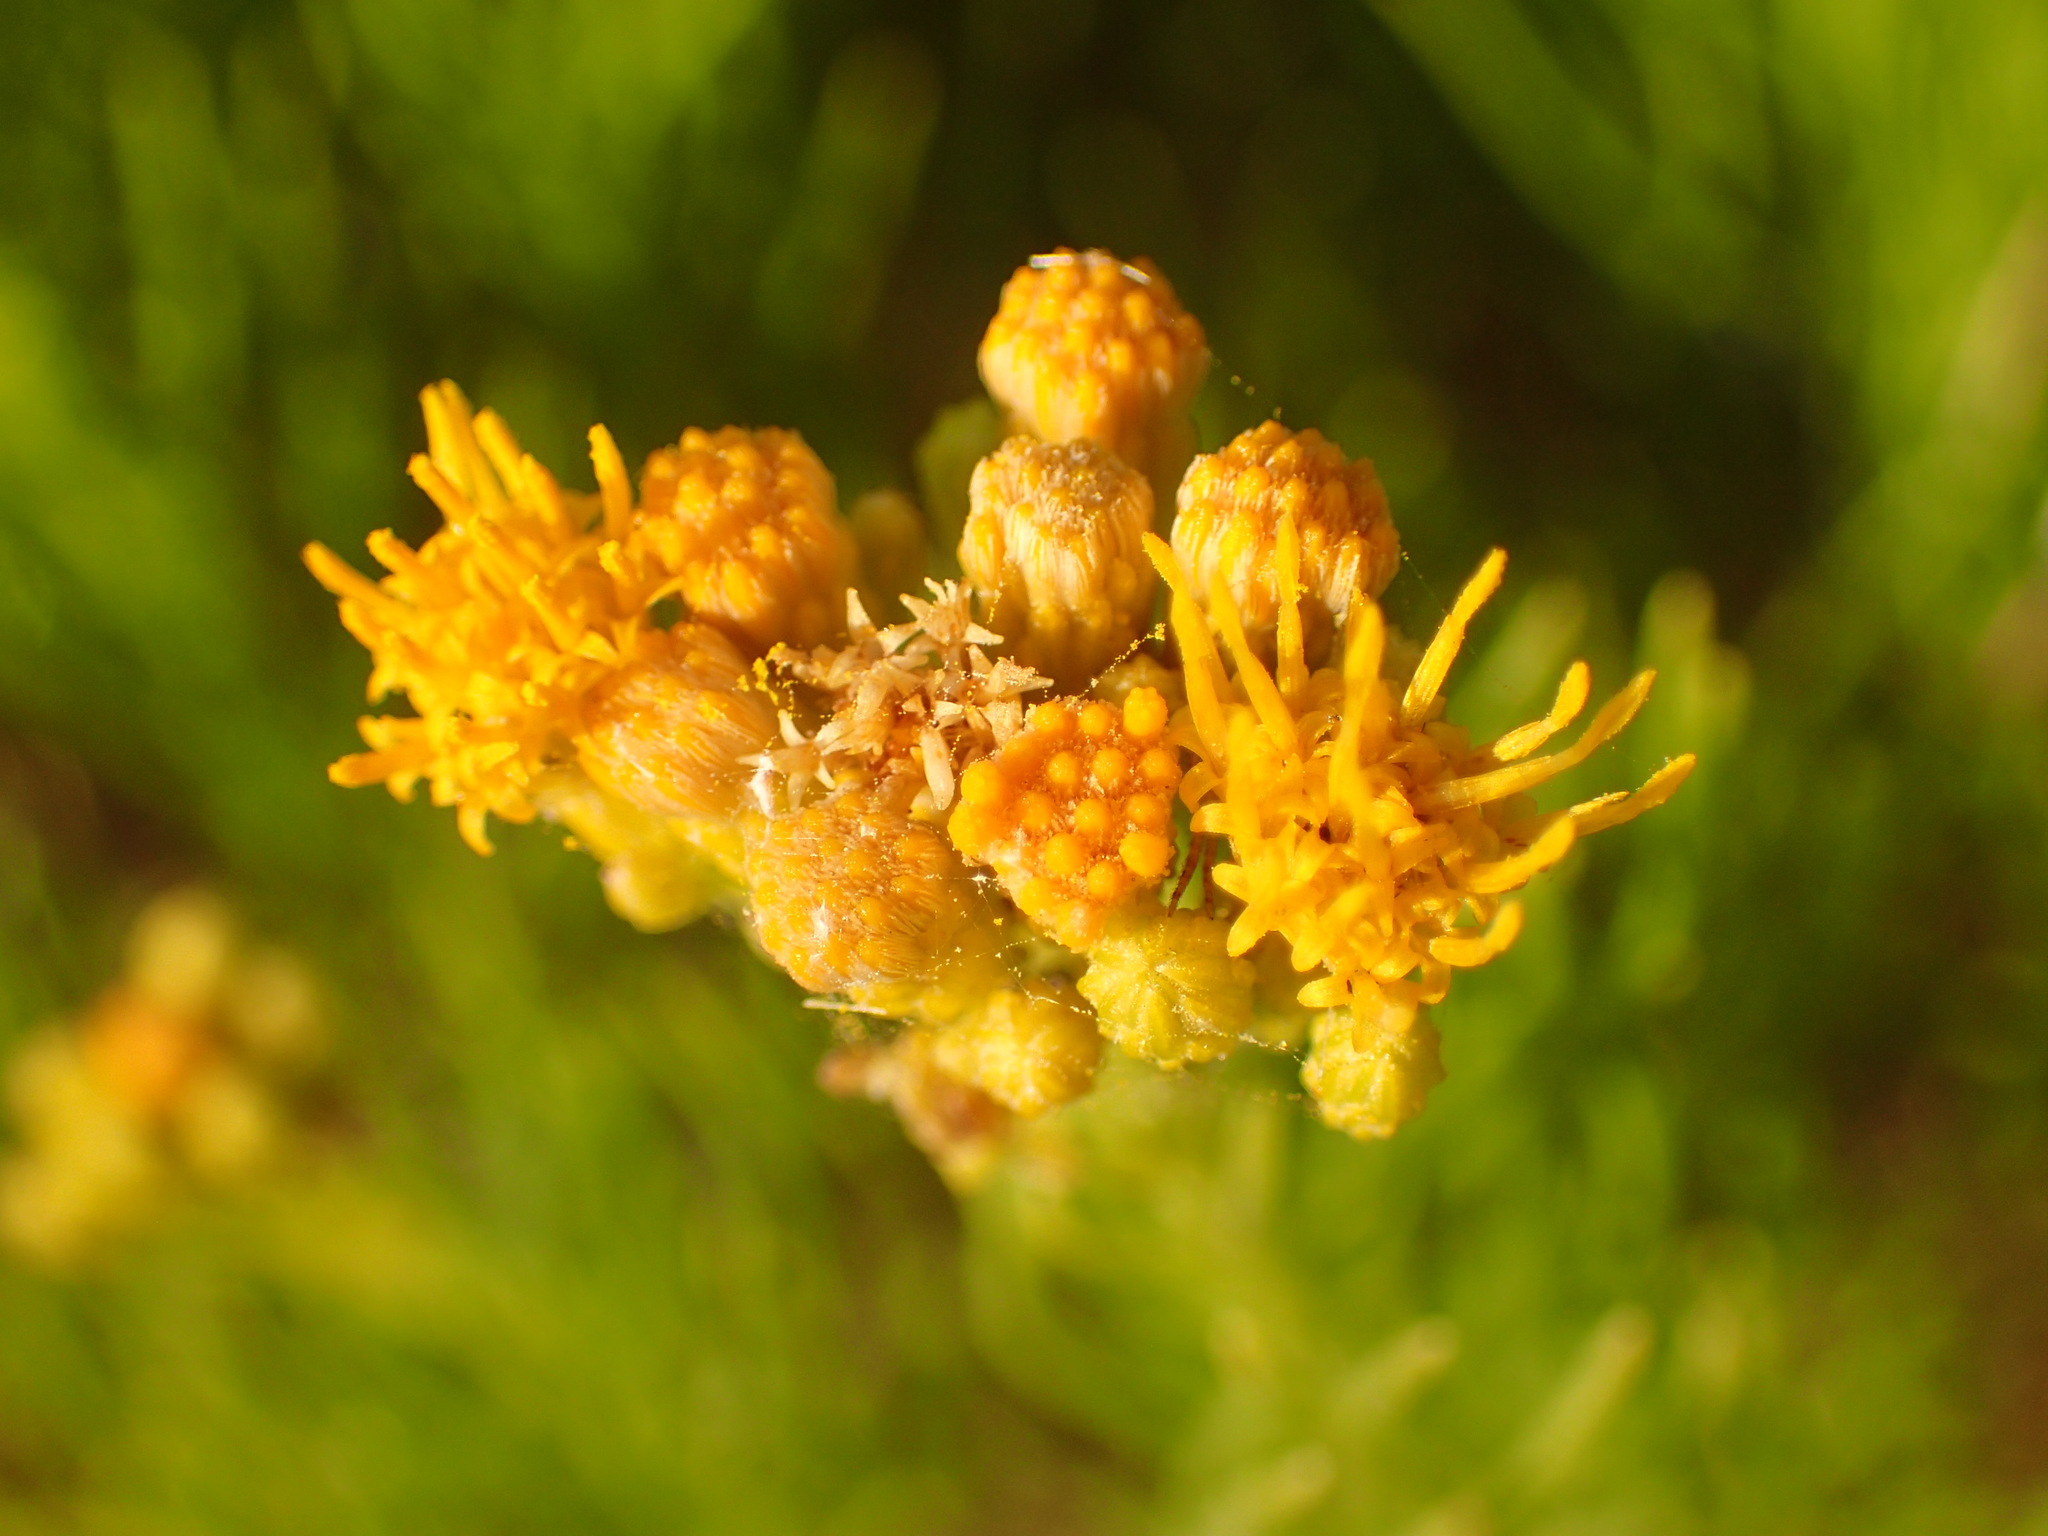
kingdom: Plantae
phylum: Tracheophyta
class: Magnoliopsida
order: Asterales
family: Asteraceae
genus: Ericameria
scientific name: Ericameria arborescens
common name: Goldenfleece
